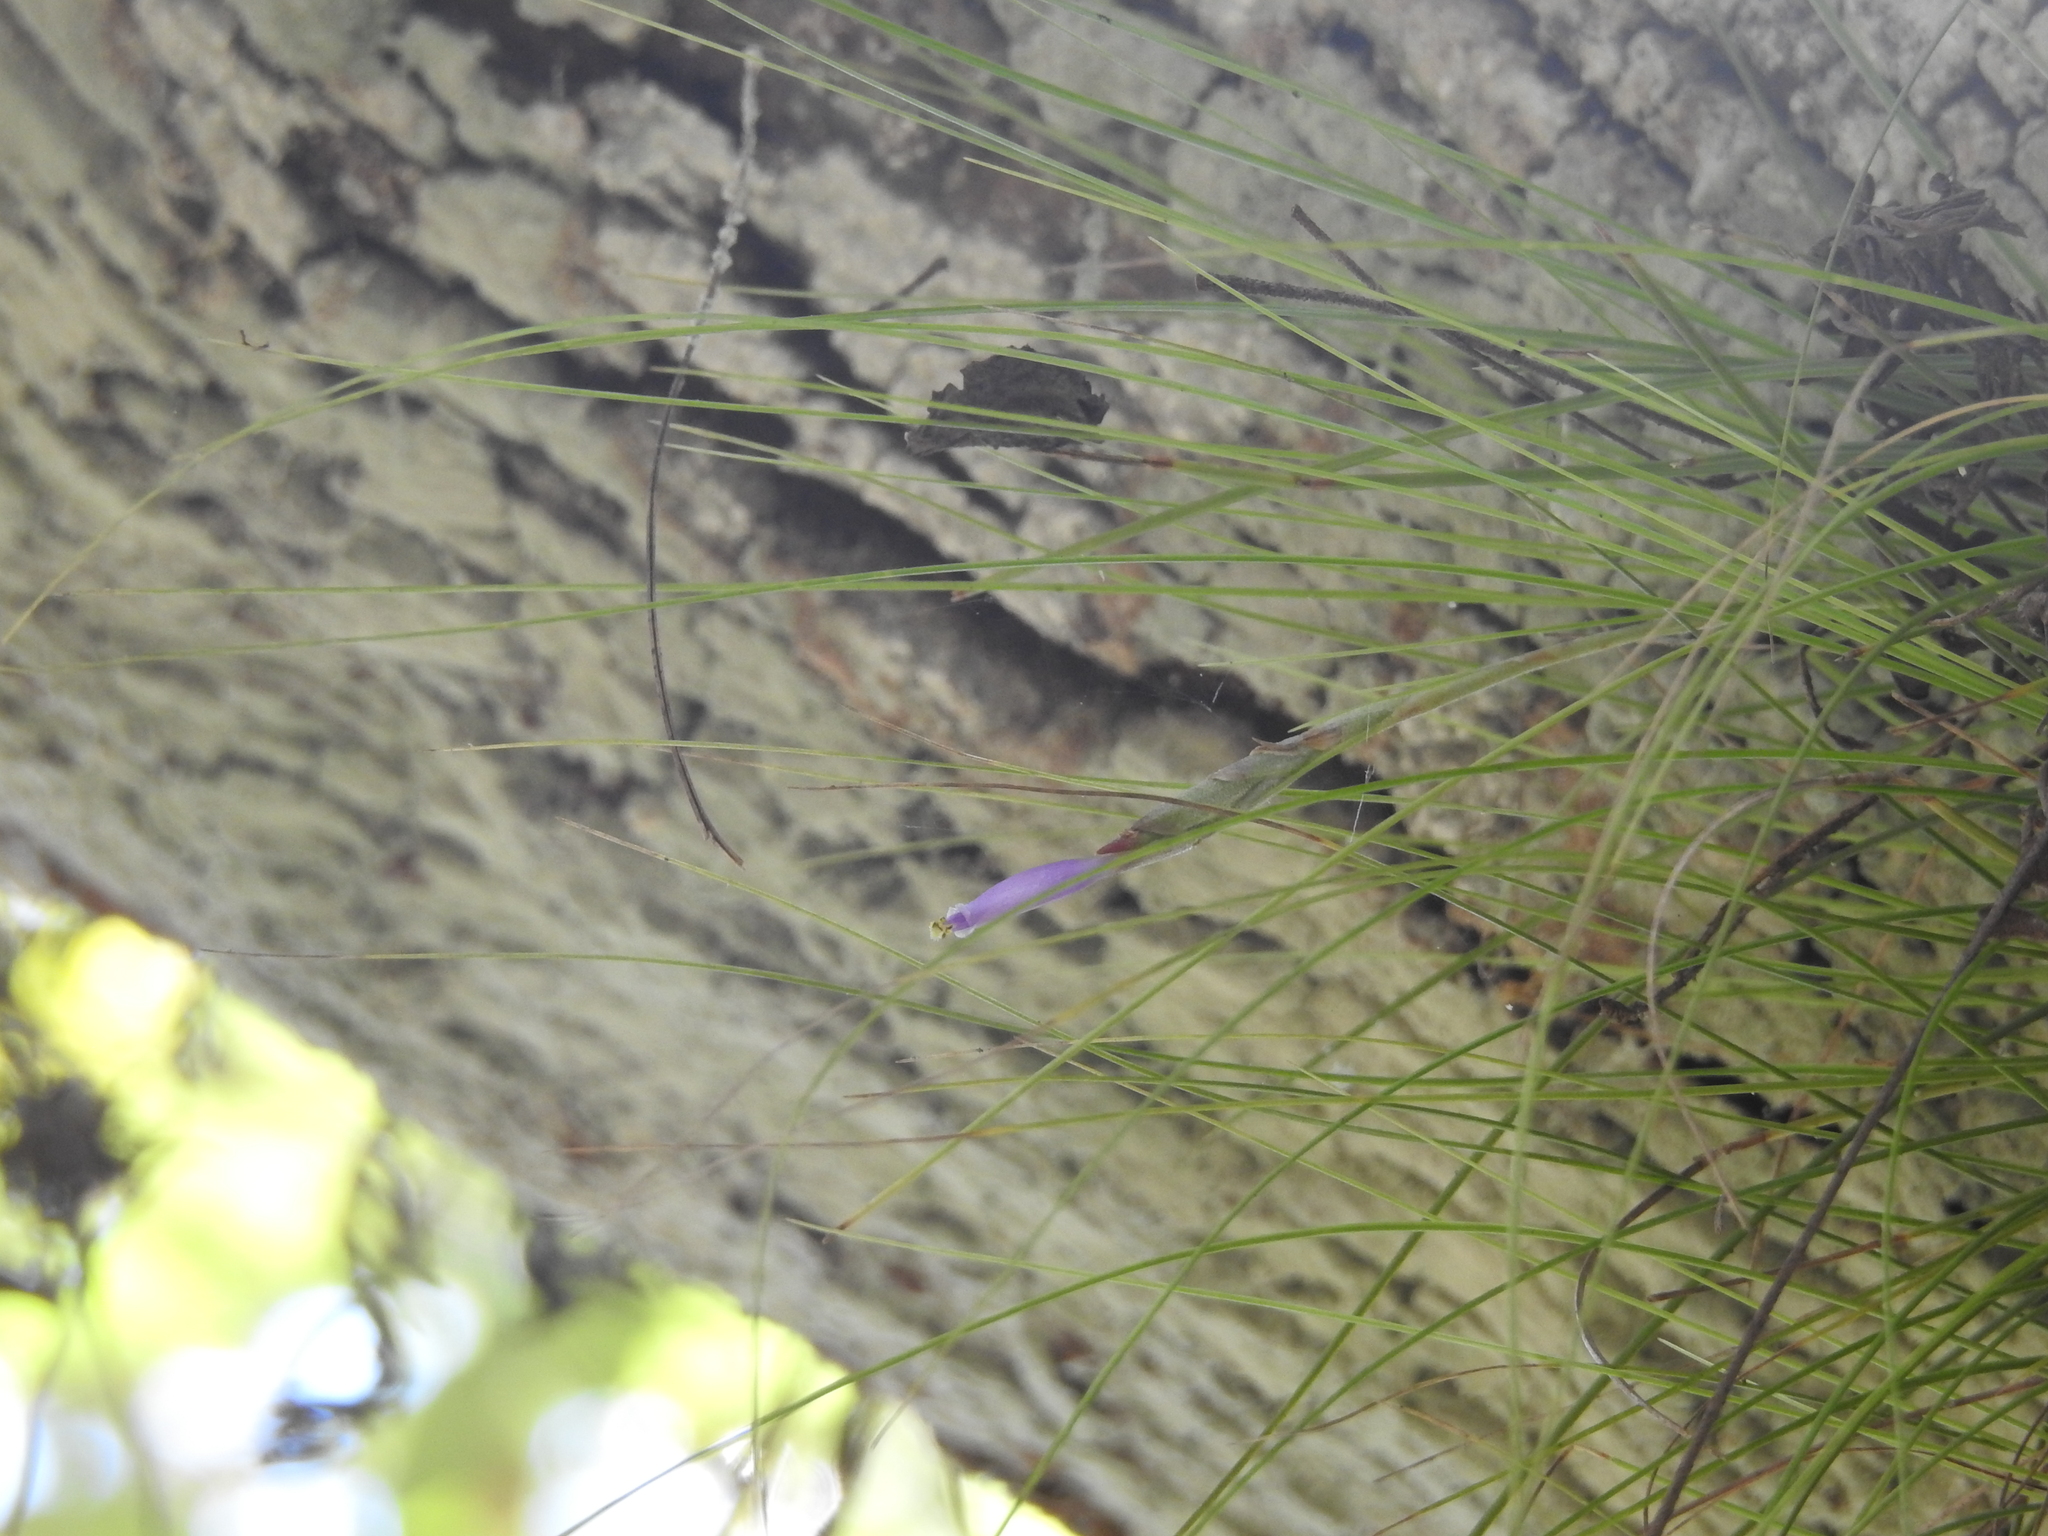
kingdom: Plantae
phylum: Tracheophyta
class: Liliopsida
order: Poales
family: Bromeliaceae
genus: Tillandsia
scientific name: Tillandsia setacea
